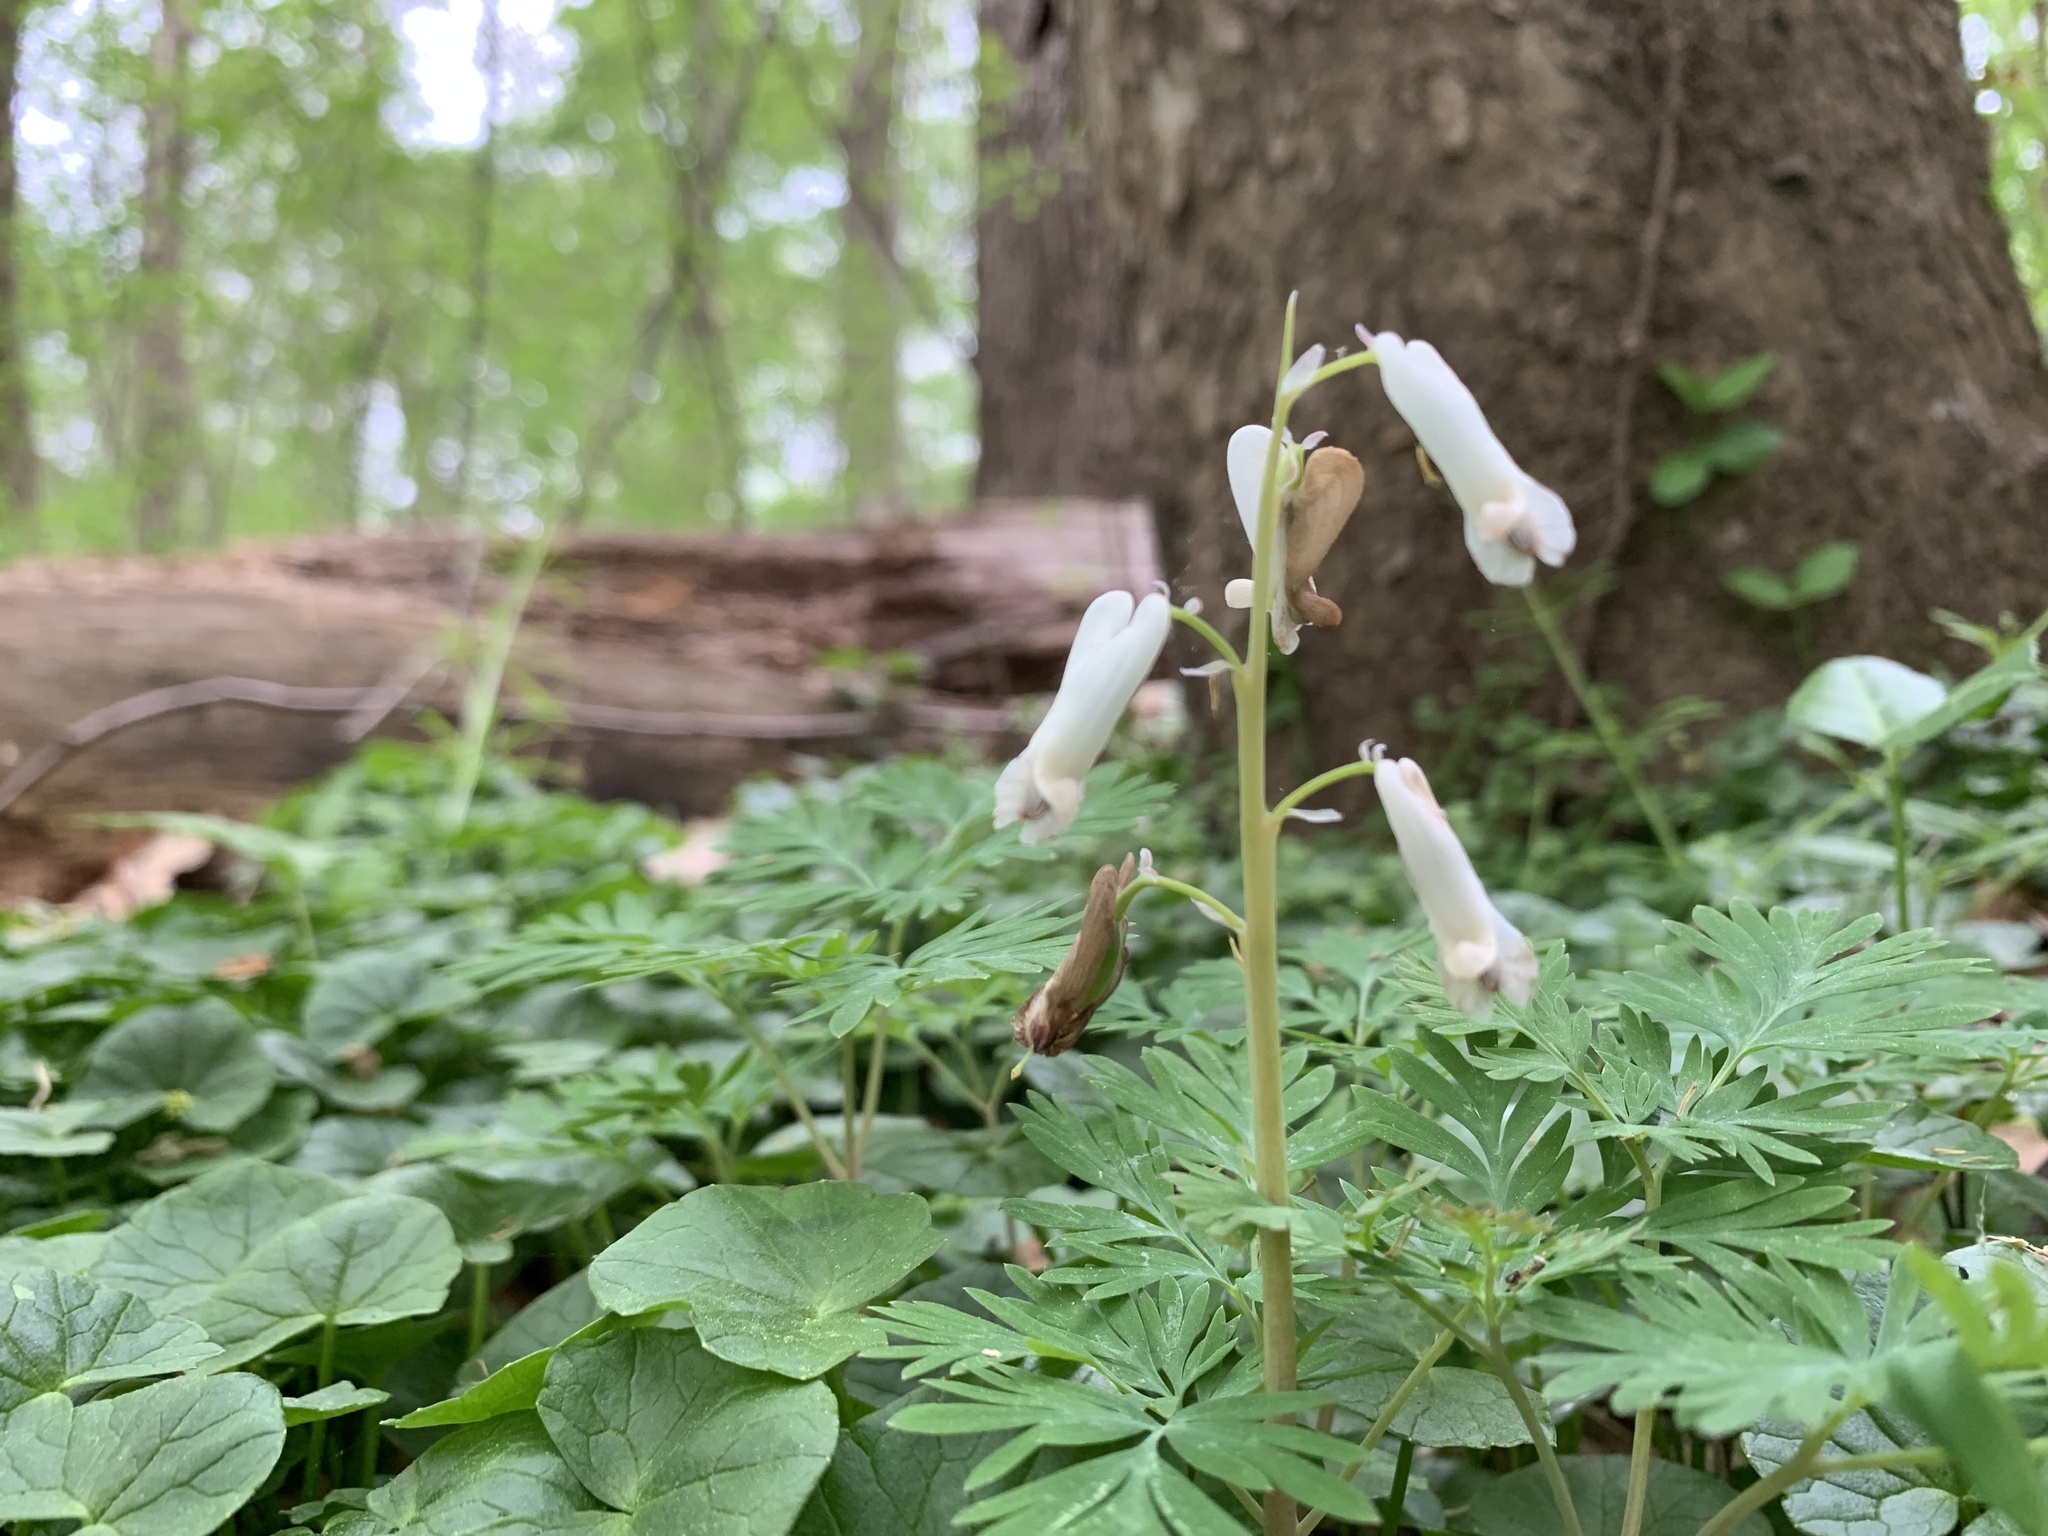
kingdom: Plantae
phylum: Tracheophyta
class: Magnoliopsida
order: Ranunculales
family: Papaveraceae
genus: Dicentra
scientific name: Dicentra canadensis
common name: Squirrel-corn
